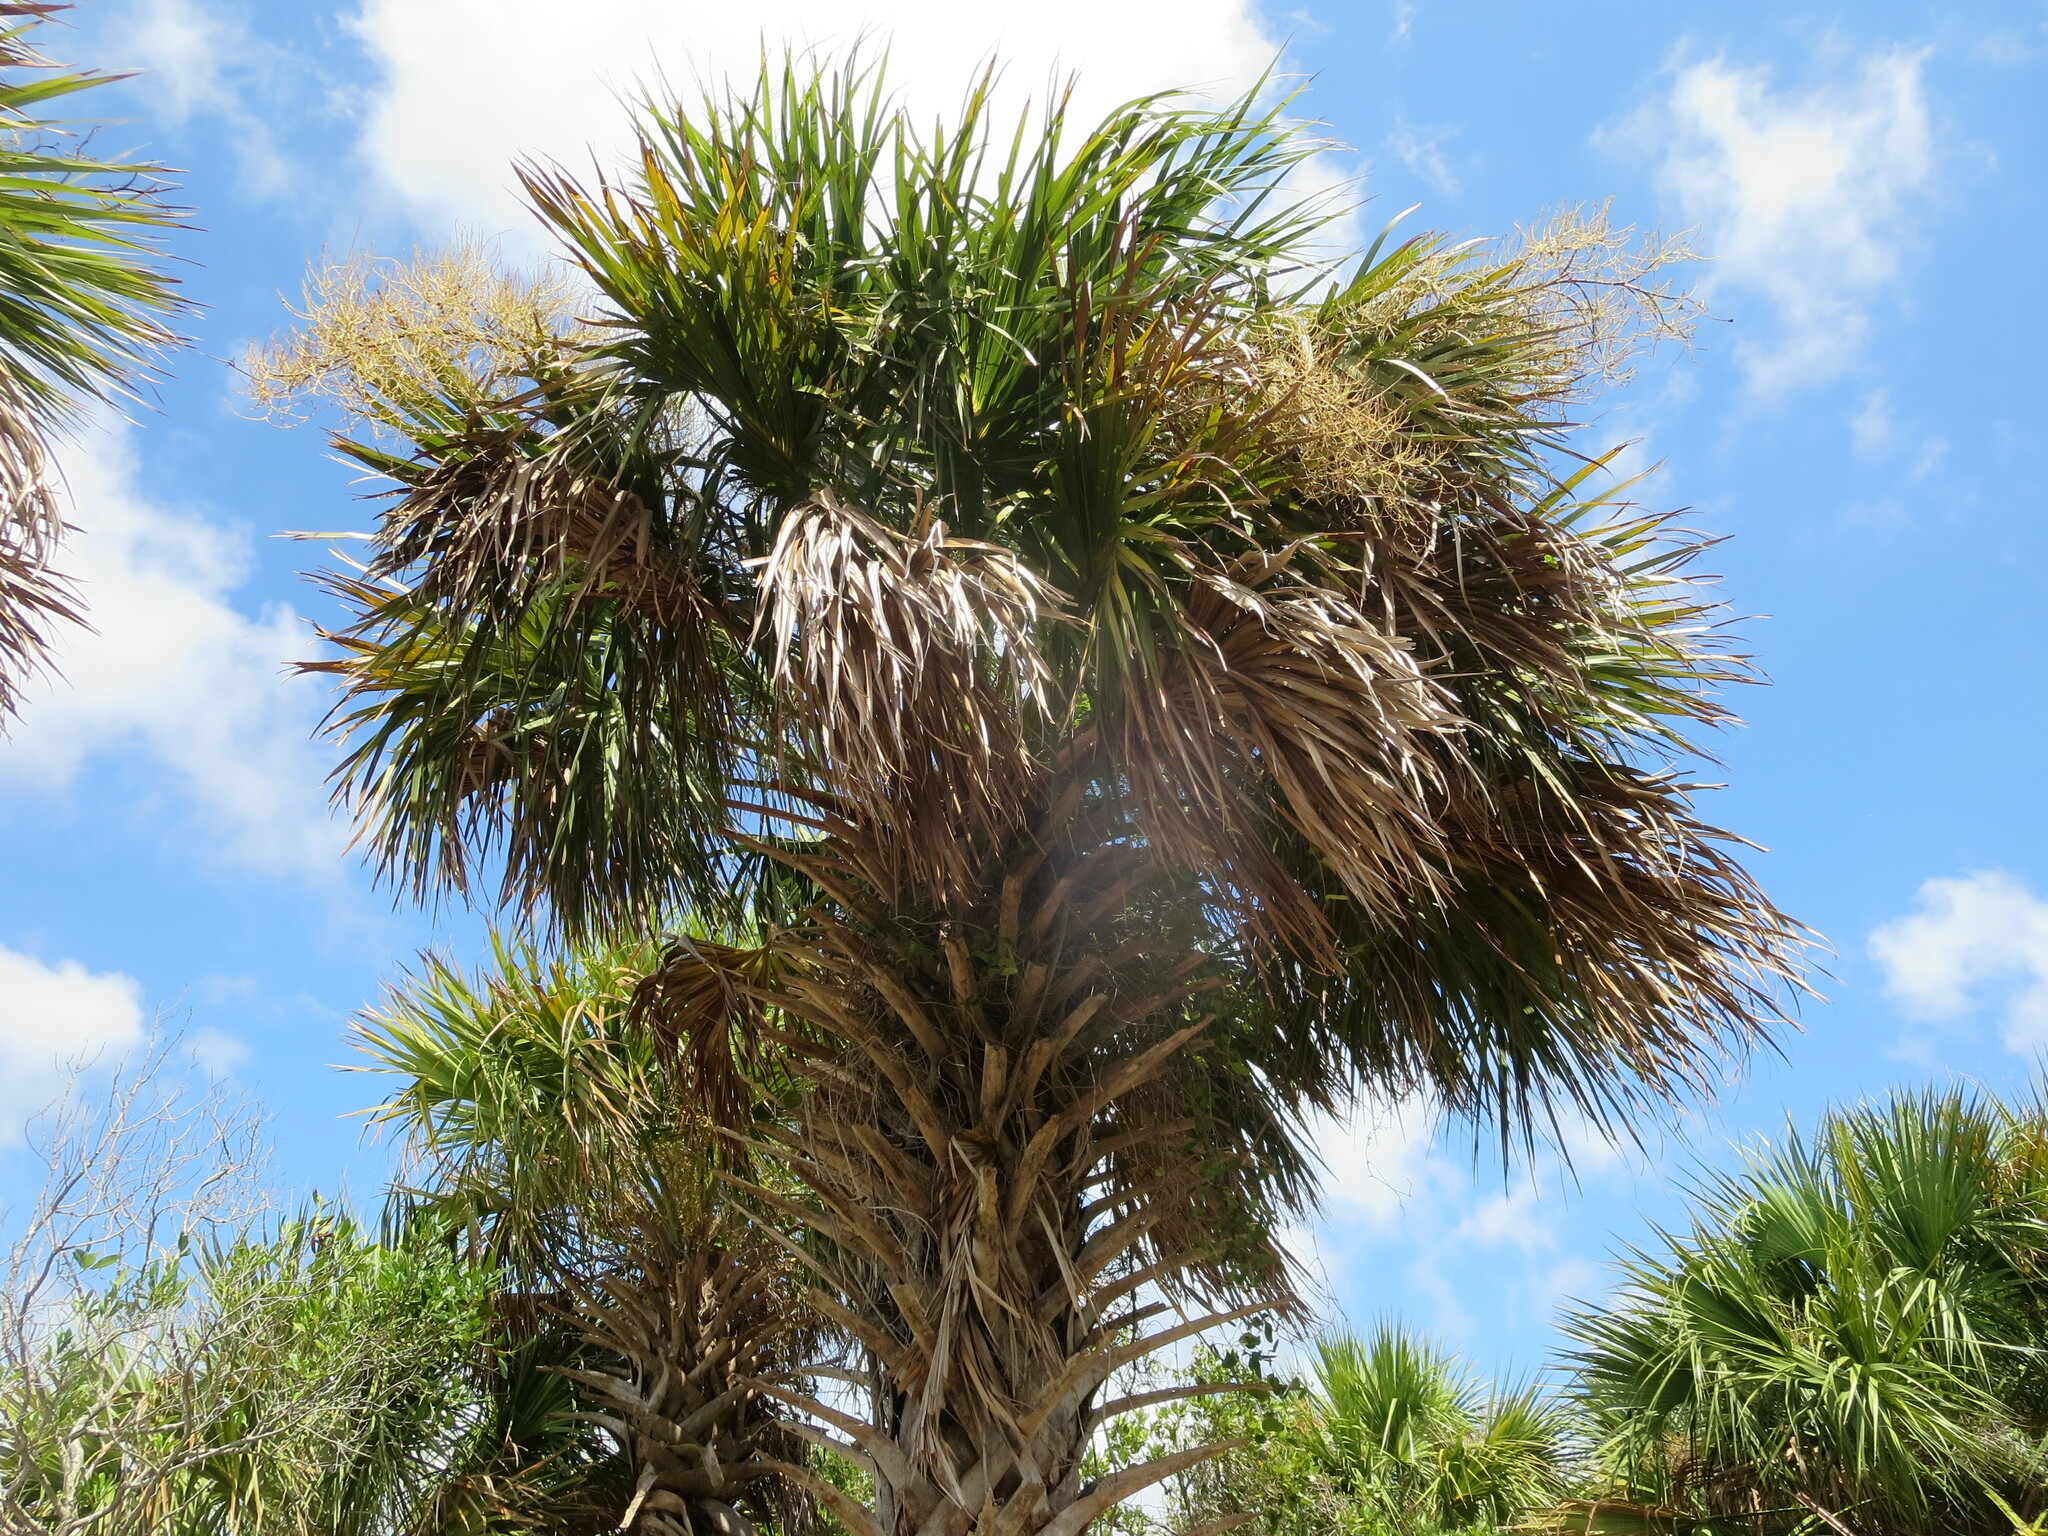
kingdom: Plantae
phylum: Tracheophyta
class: Liliopsida
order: Arecales
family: Arecaceae
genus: Sabal
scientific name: Sabal palmetto
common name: Blue palmetto
